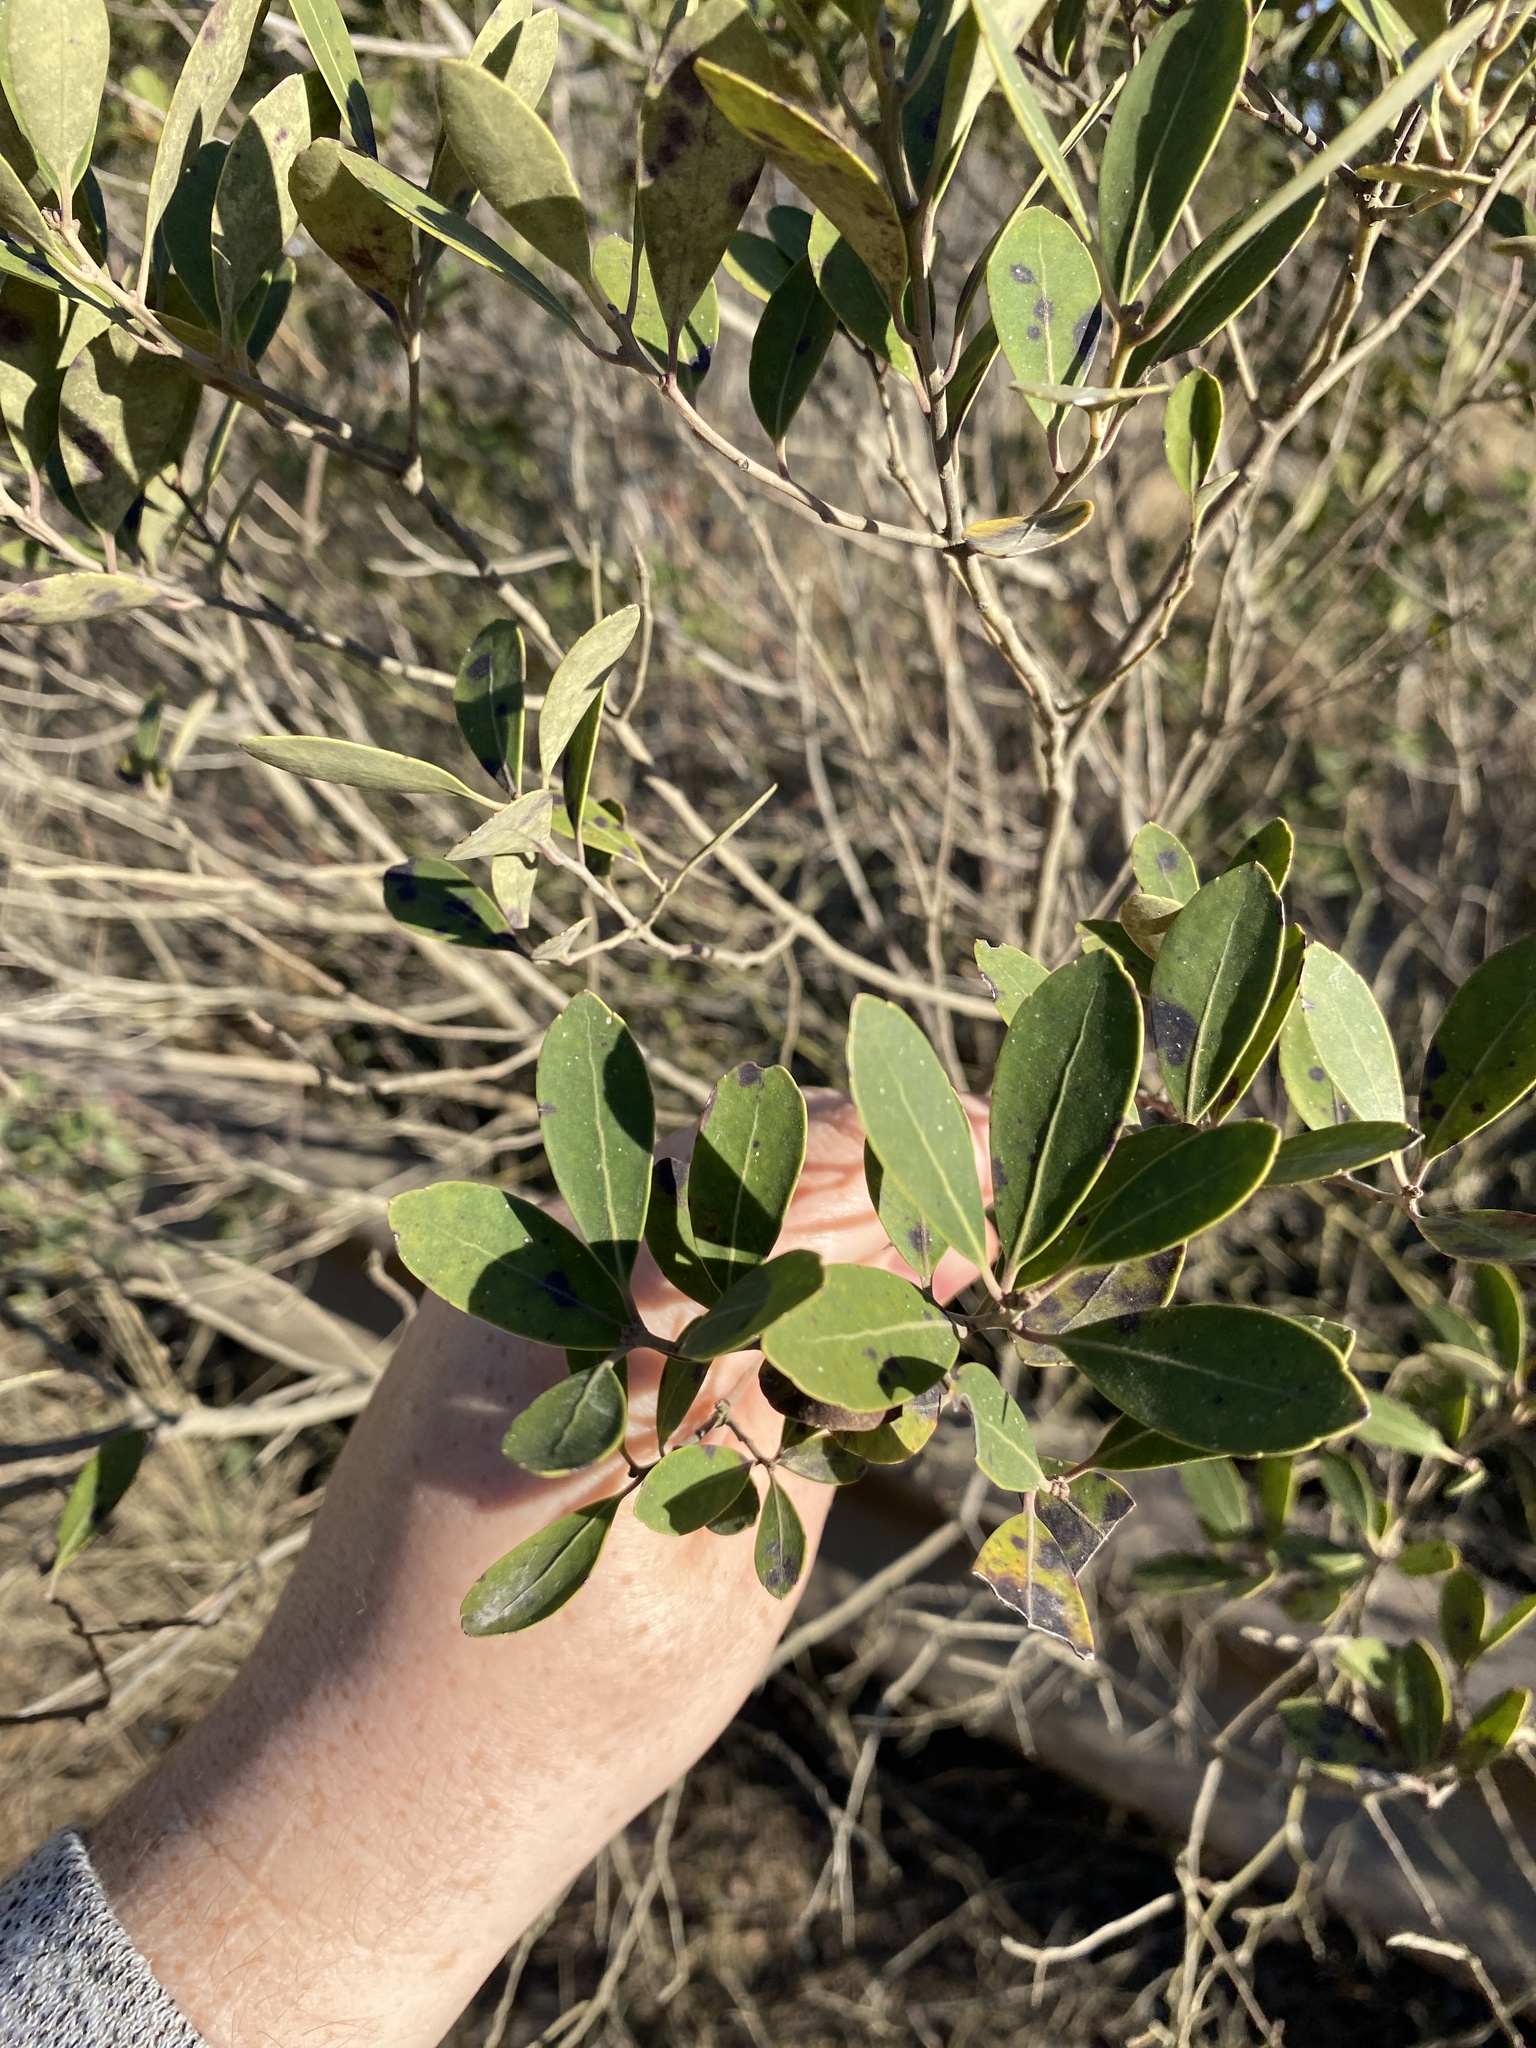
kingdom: Plantae
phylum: Tracheophyta
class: Magnoliopsida
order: Aquifoliales
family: Aquifoliaceae
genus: Ilex
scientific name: Ilex glabra
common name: Bitter gallberry
